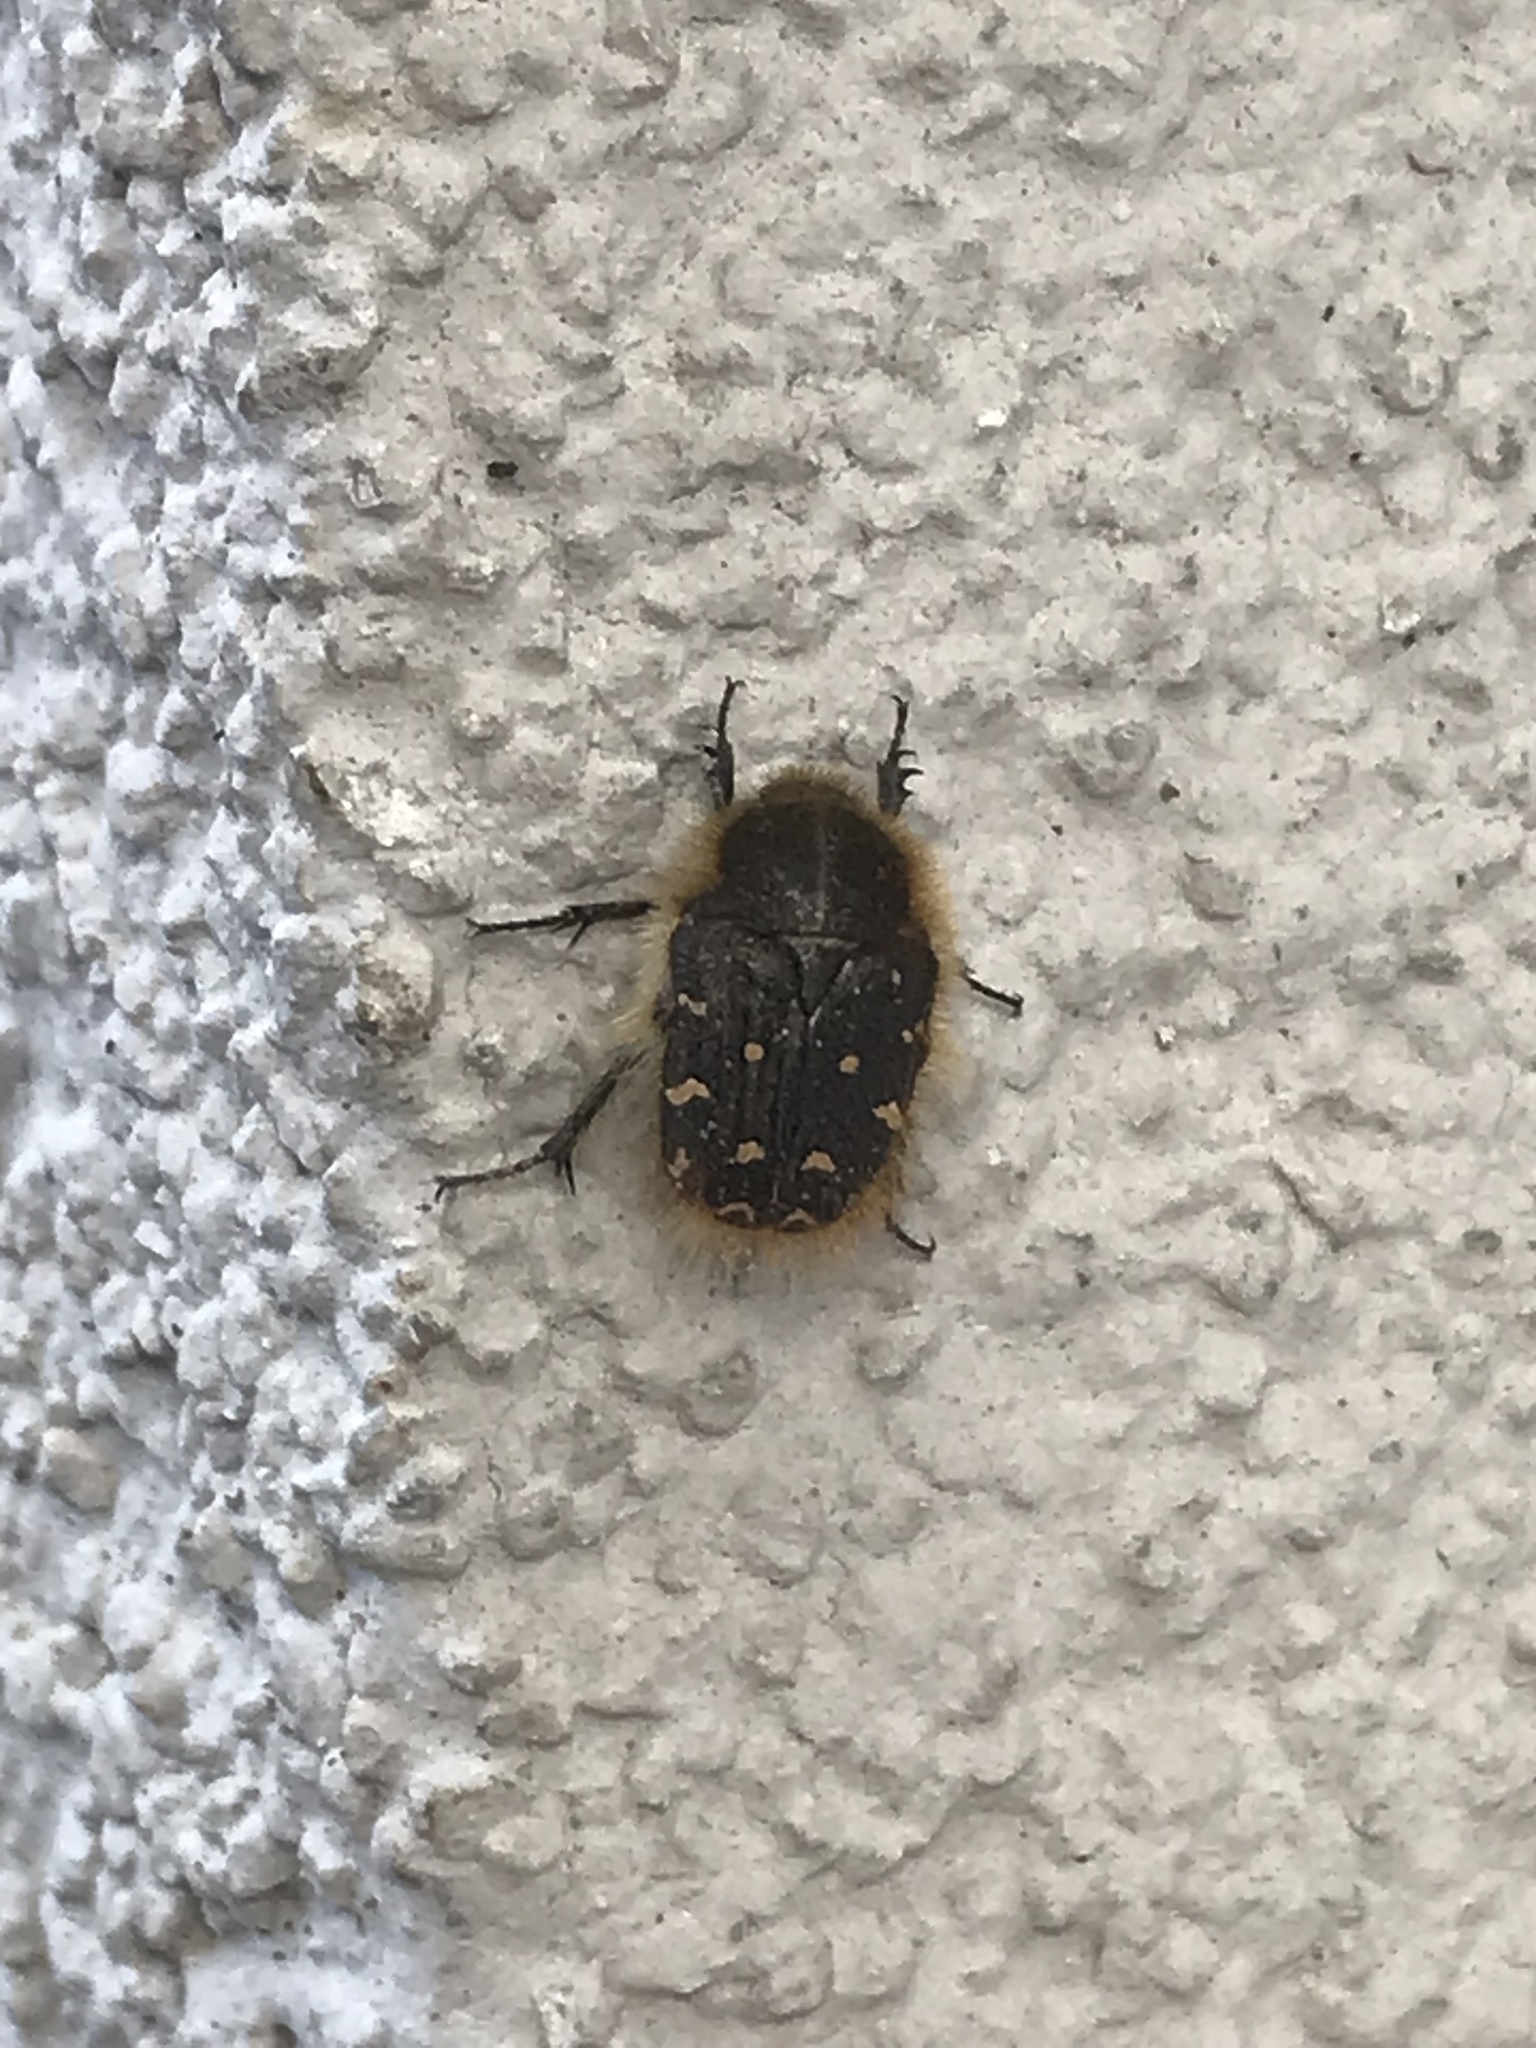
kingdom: Animalia
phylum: Arthropoda
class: Insecta
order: Coleoptera
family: Scarabaeidae
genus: Tropinota
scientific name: Tropinota hirta
